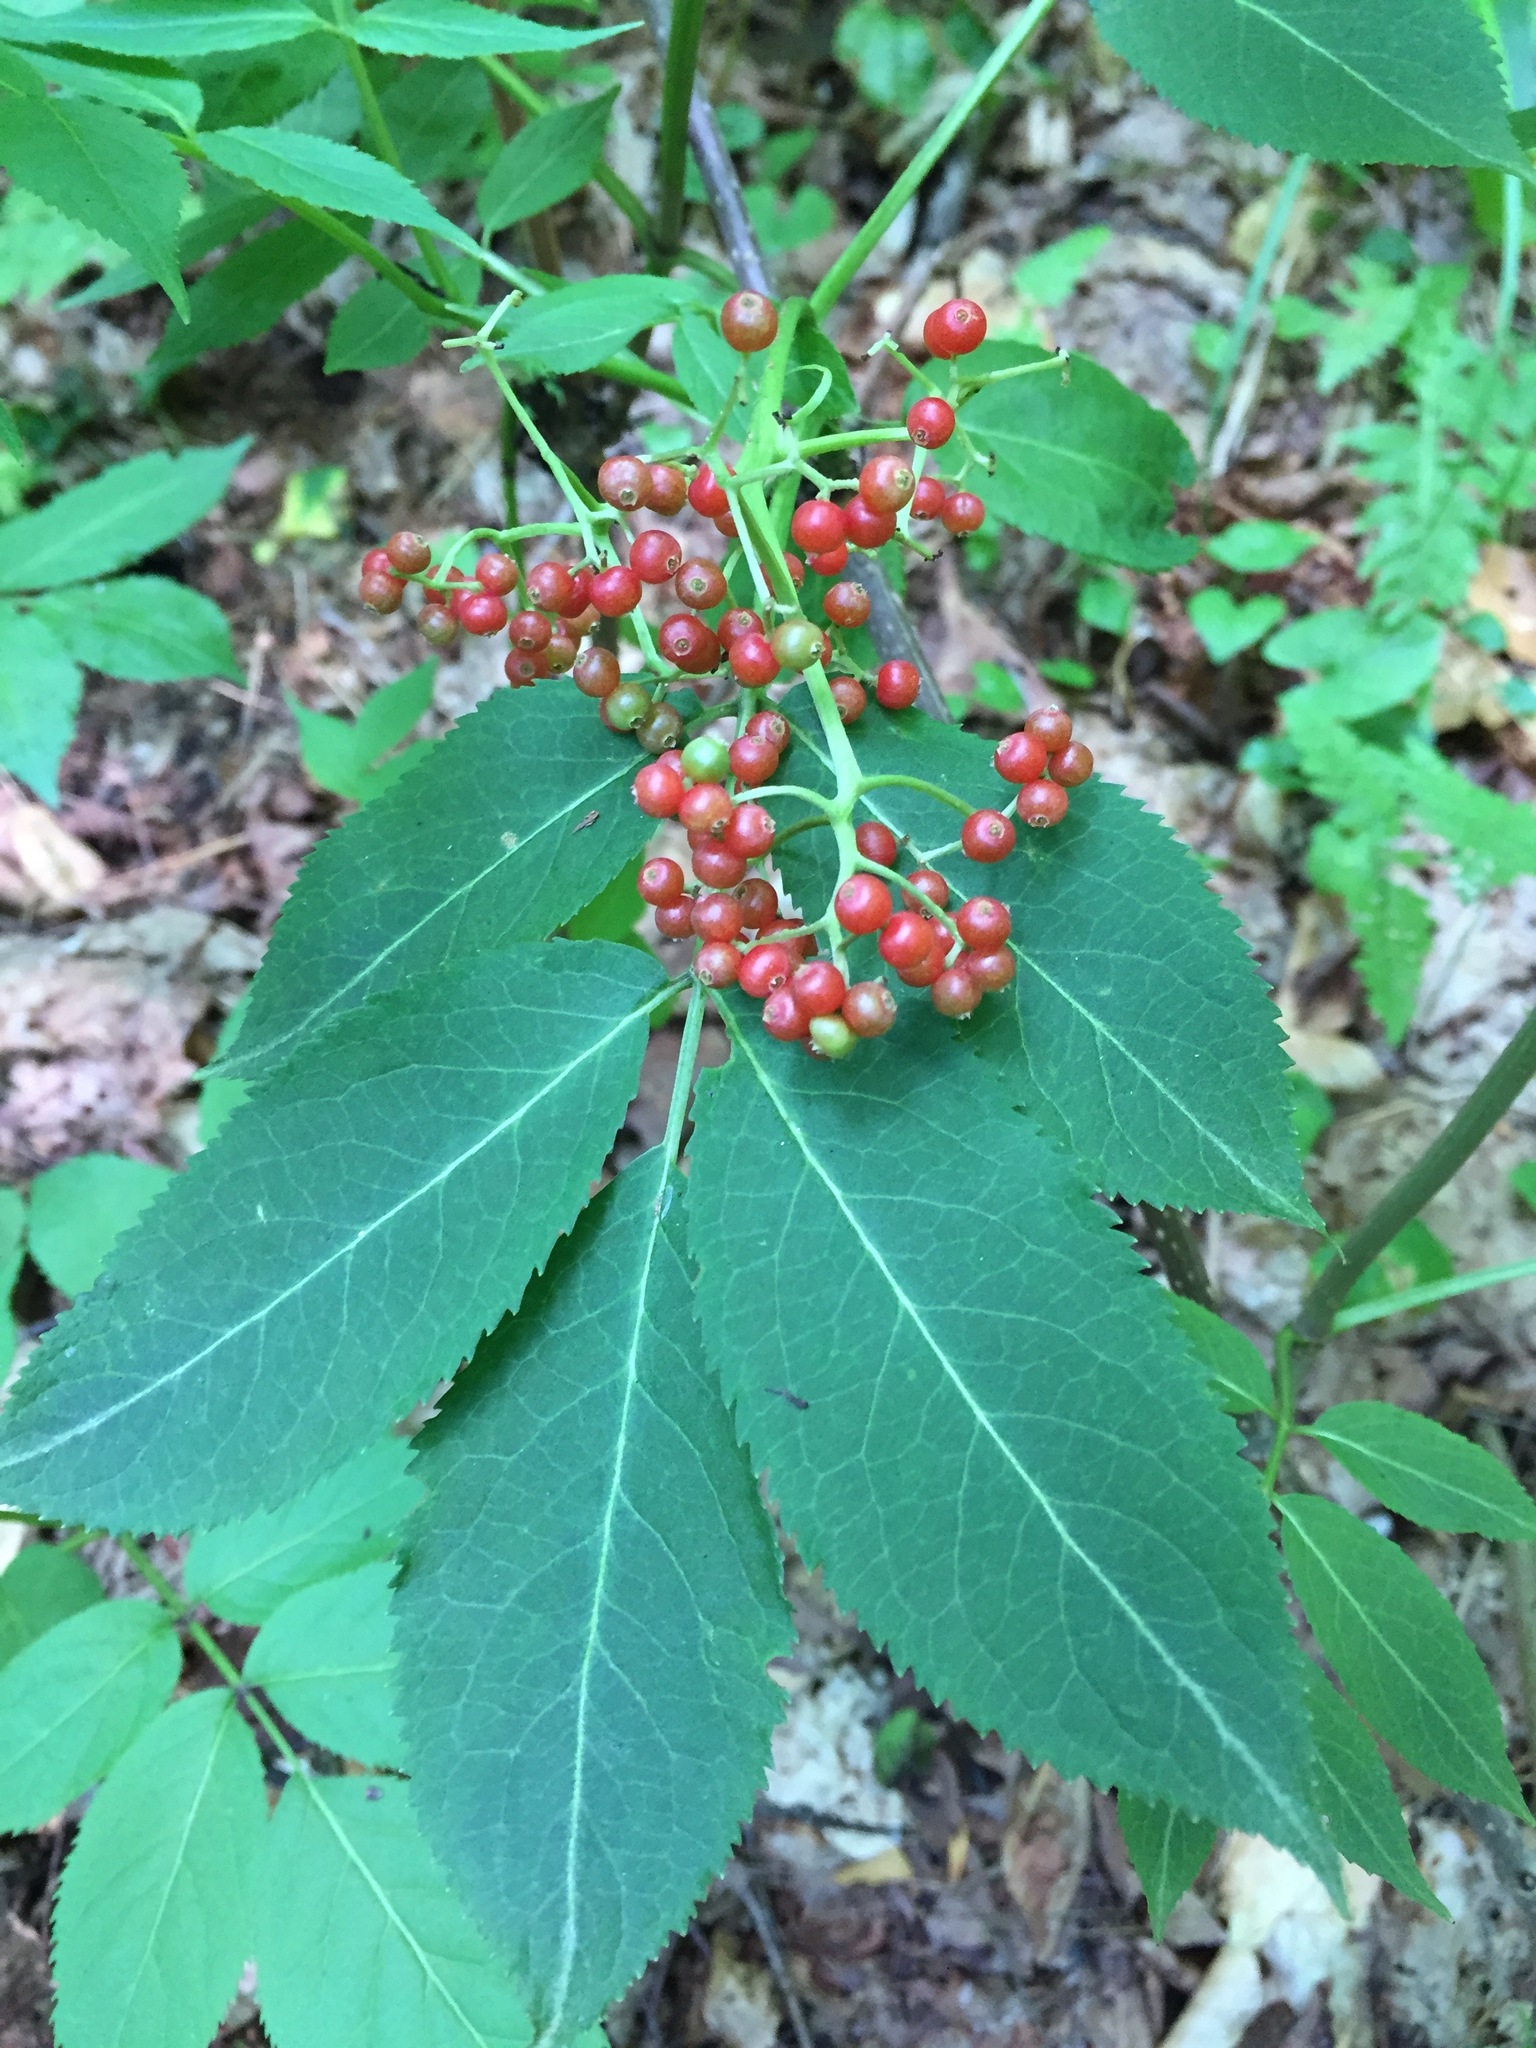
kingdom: Plantae
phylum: Tracheophyta
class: Magnoliopsida
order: Dipsacales
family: Viburnaceae
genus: Sambucus
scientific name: Sambucus racemosa
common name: Red-berried elder
